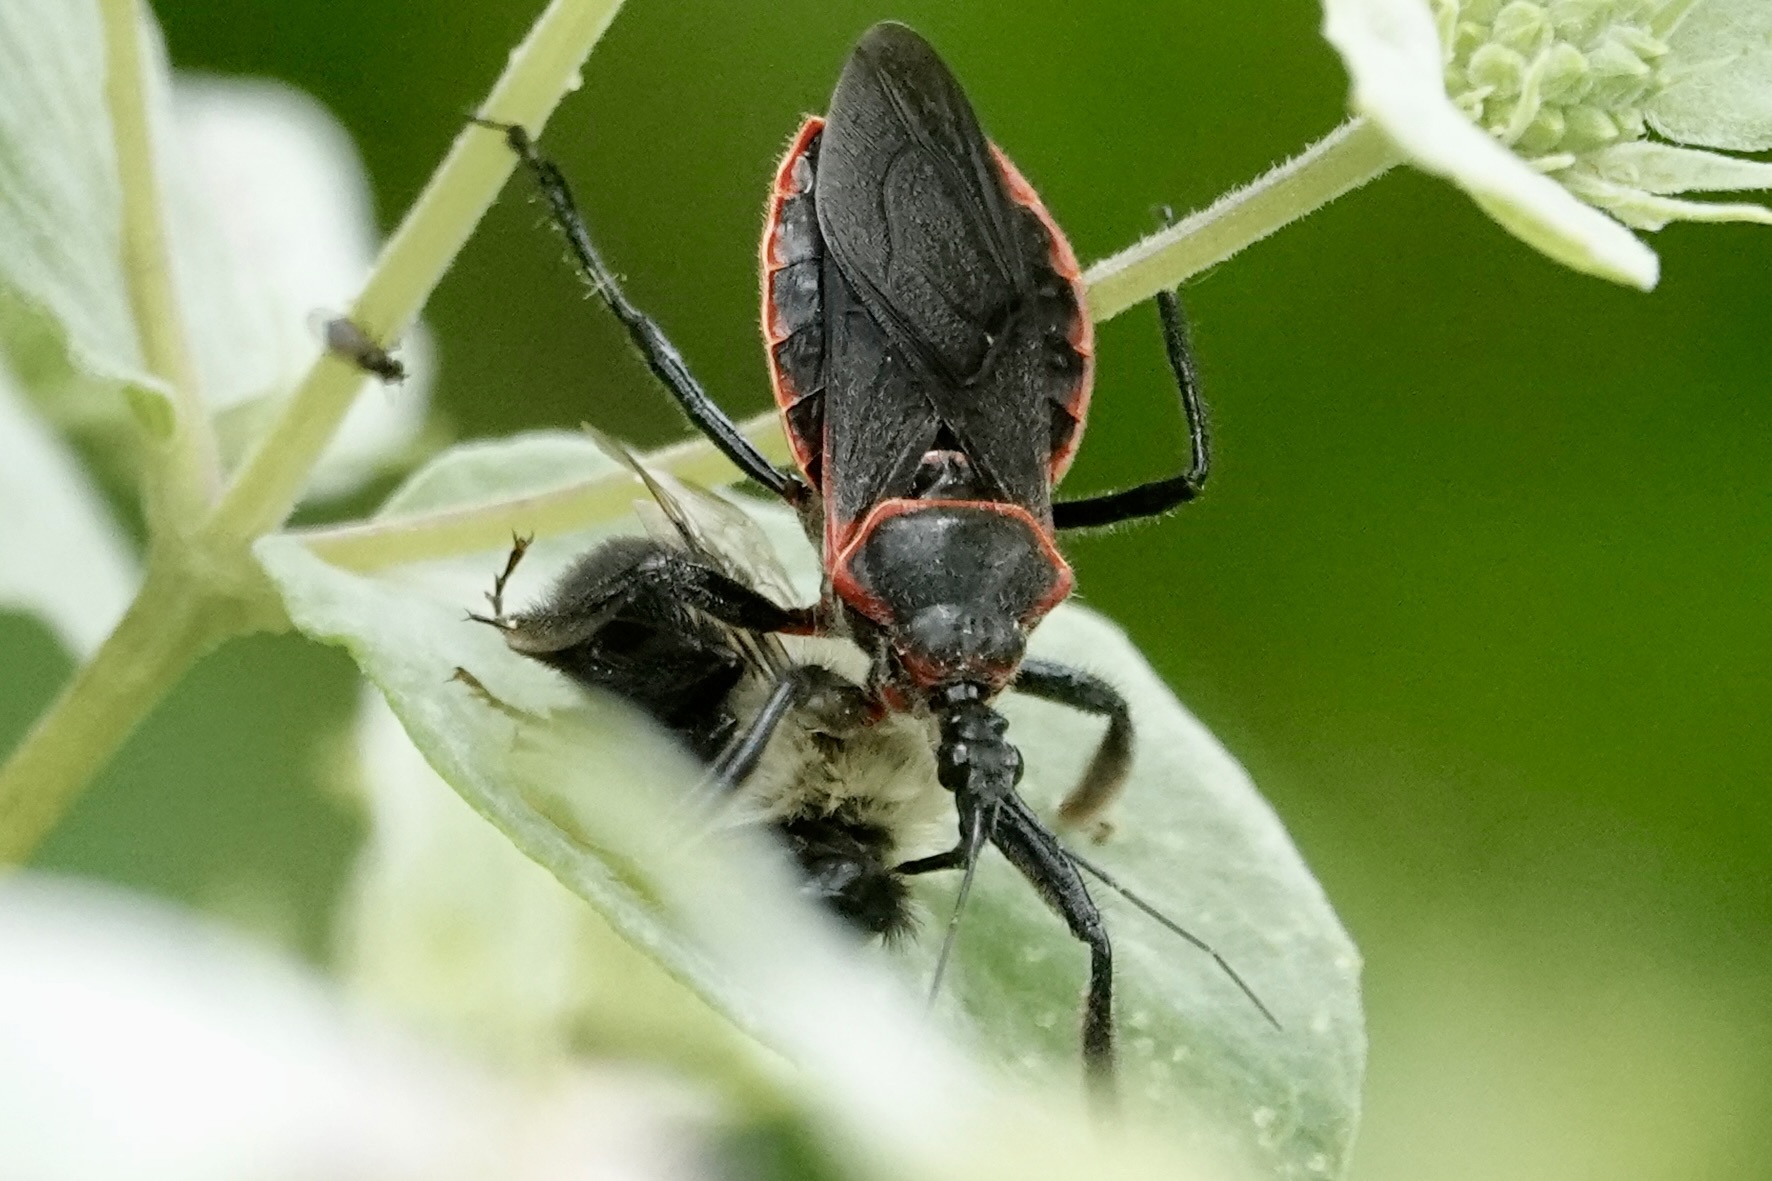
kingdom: Animalia
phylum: Arthropoda
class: Insecta
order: Hemiptera
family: Reduviidae
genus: Apiomerus
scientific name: Apiomerus crassipes
